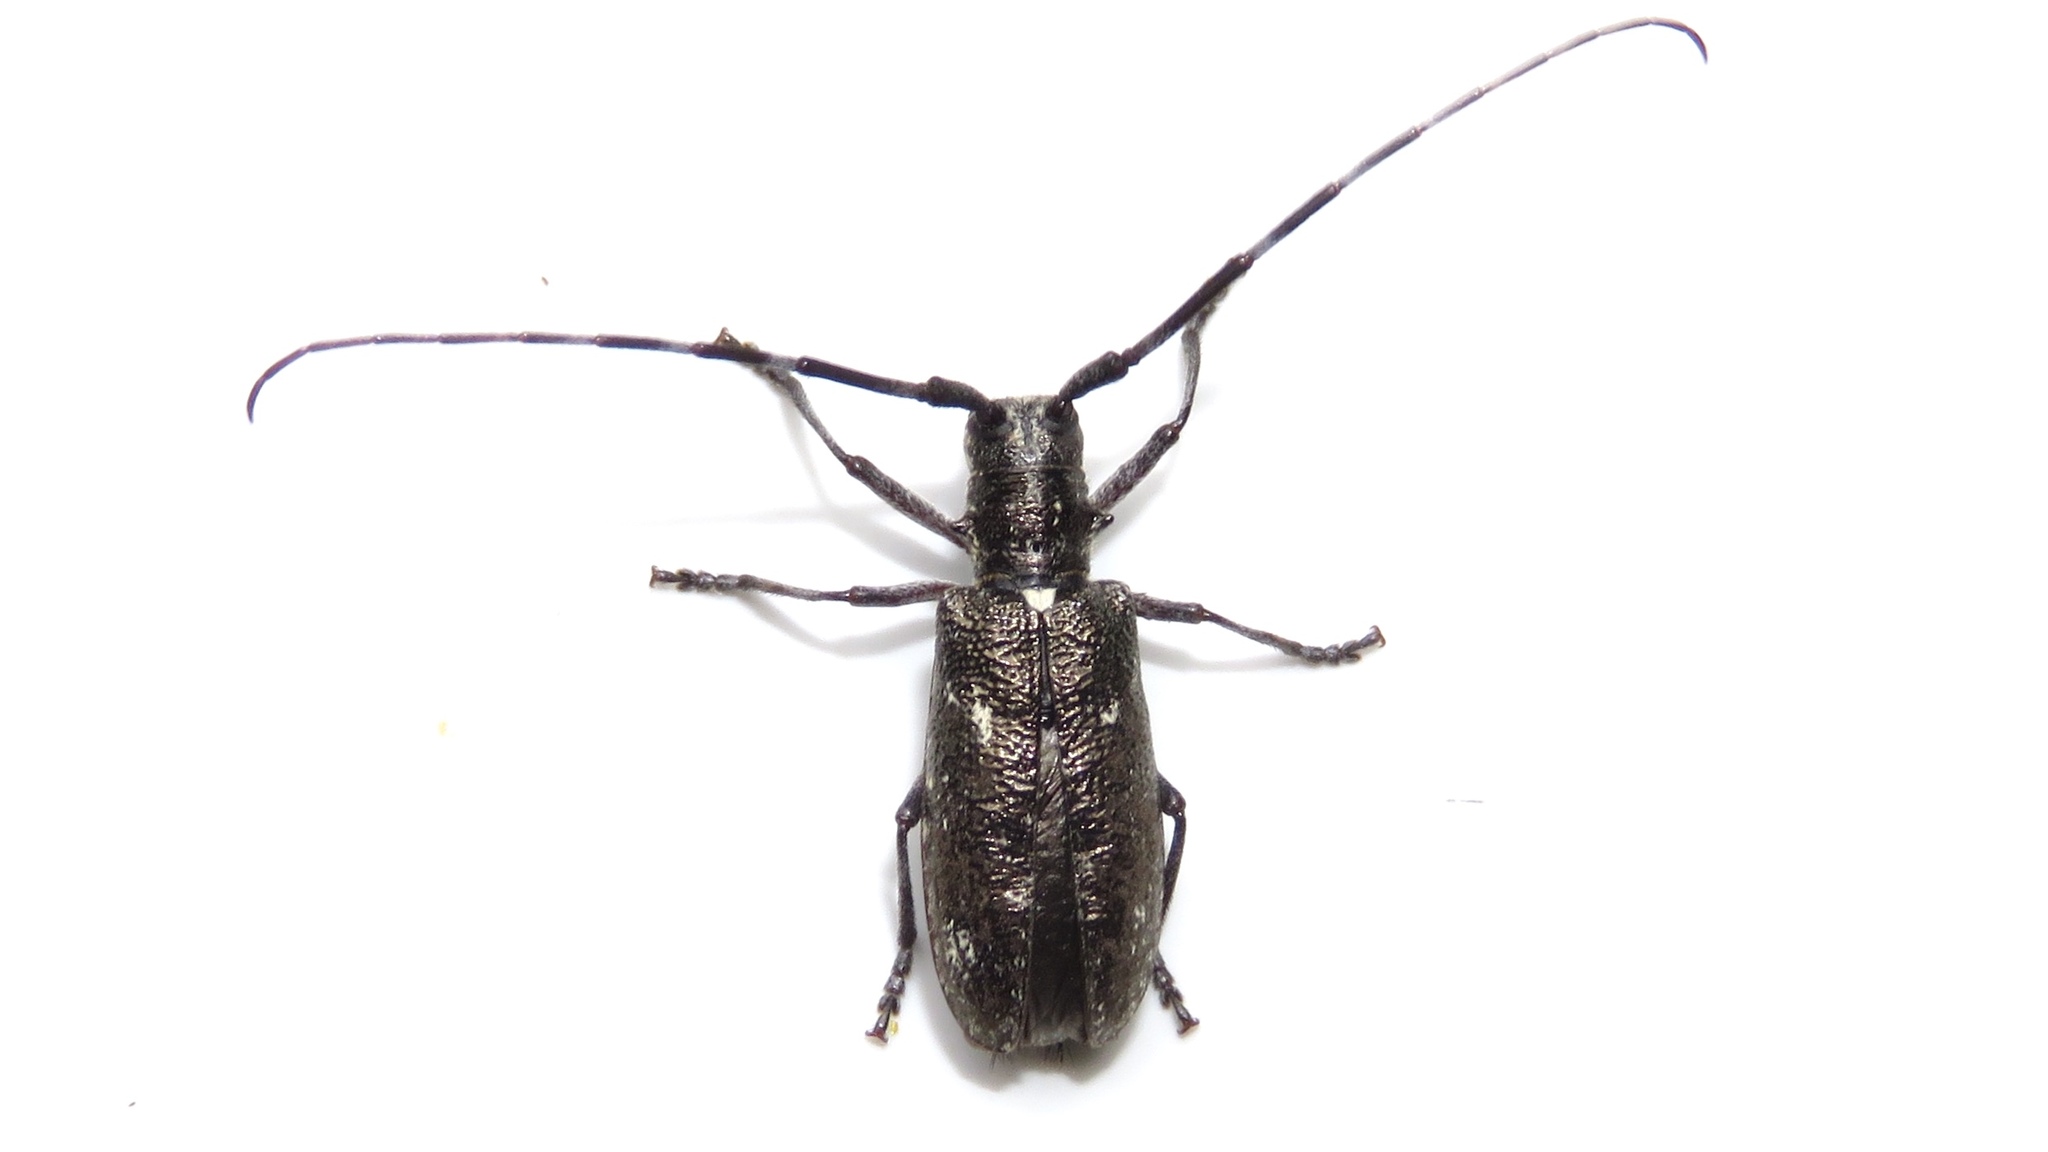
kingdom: Animalia
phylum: Arthropoda
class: Insecta
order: Coleoptera
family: Cerambycidae
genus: Monochamus
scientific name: Monochamus scutellatus
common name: White-spotted sawyer beetle
